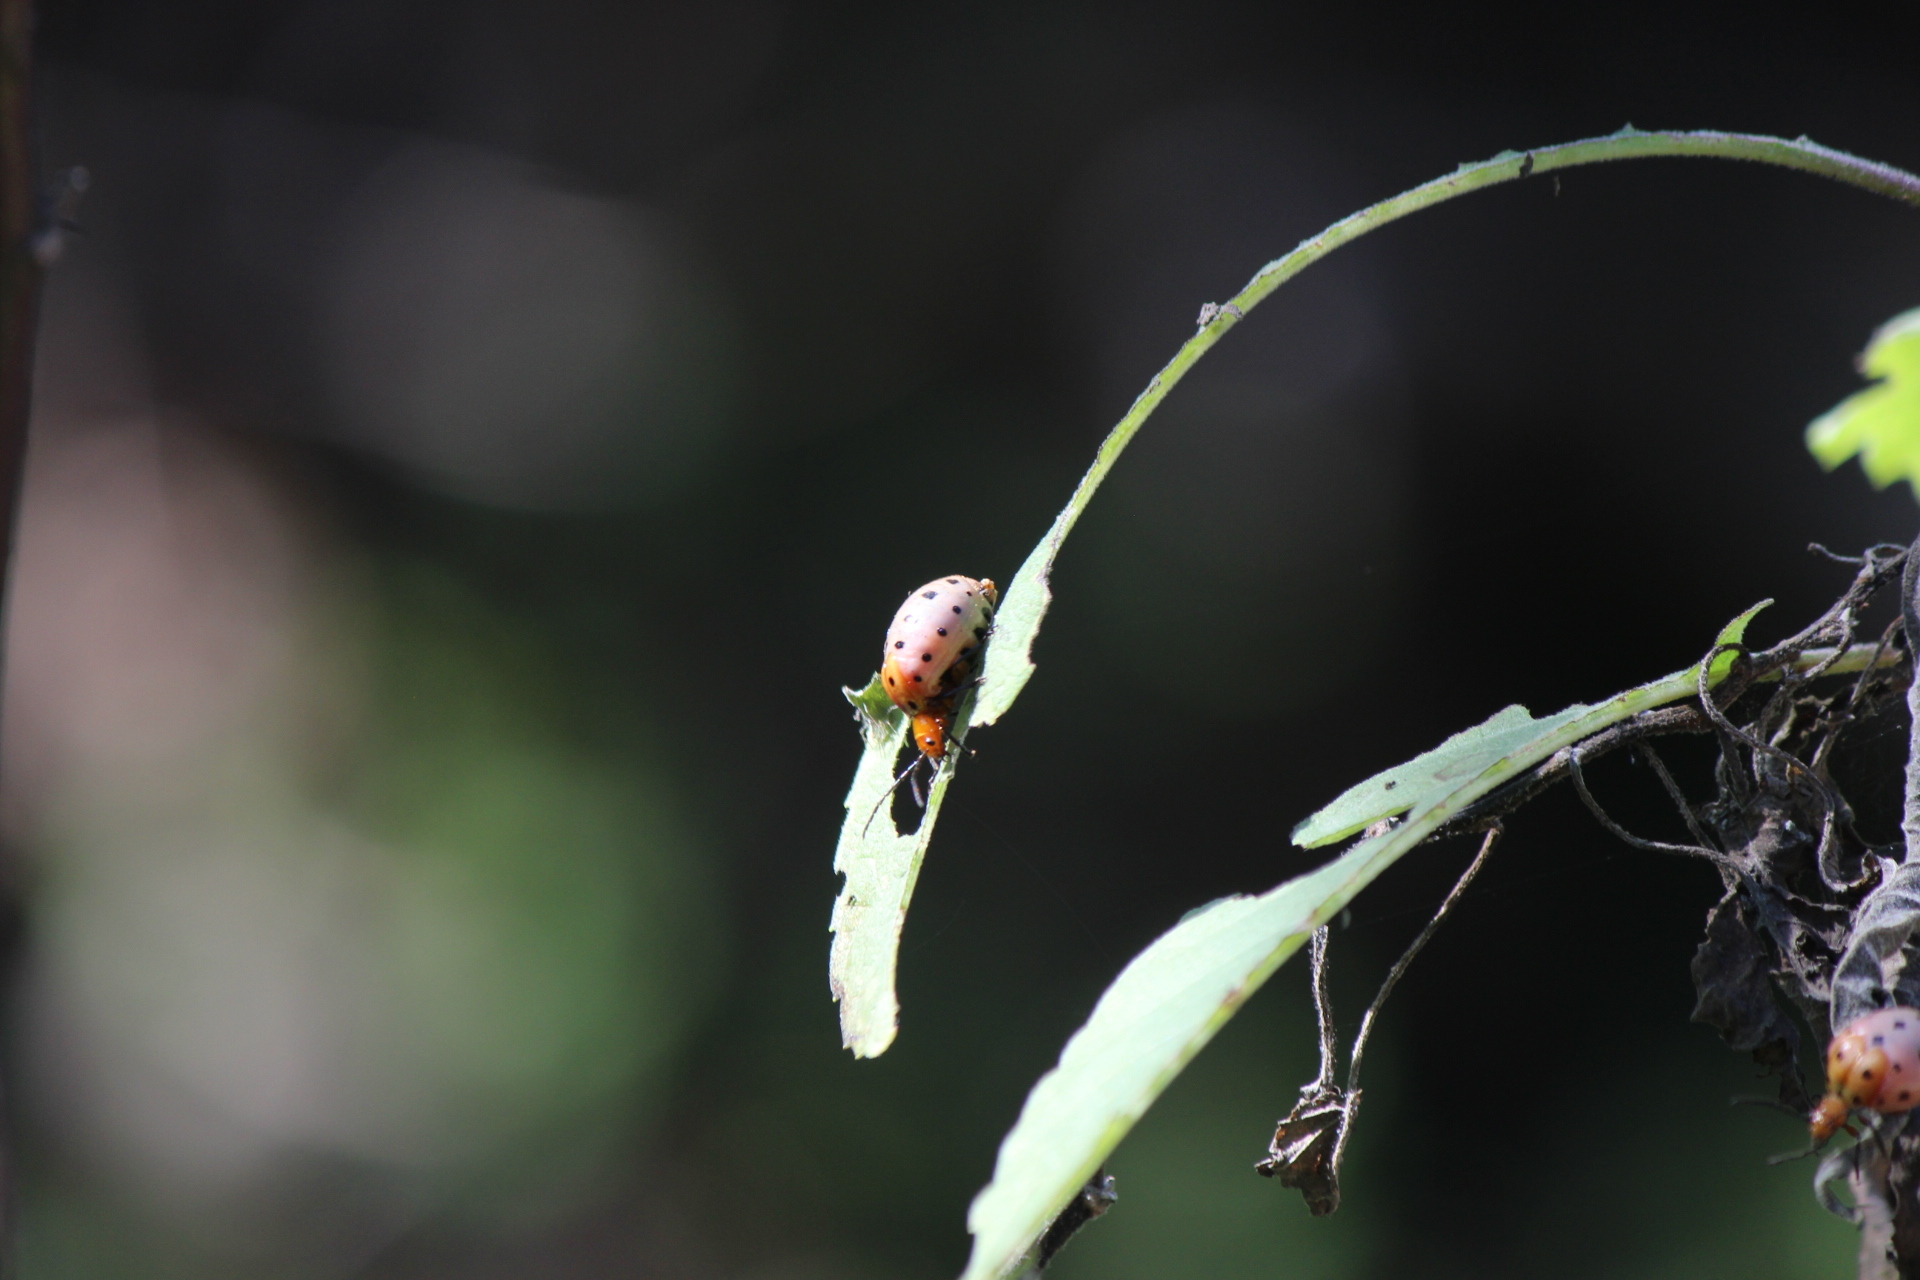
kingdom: Animalia
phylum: Arthropoda
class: Insecta
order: Coleoptera
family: Chrysomelidae
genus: Metacycla
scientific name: Metacycla
